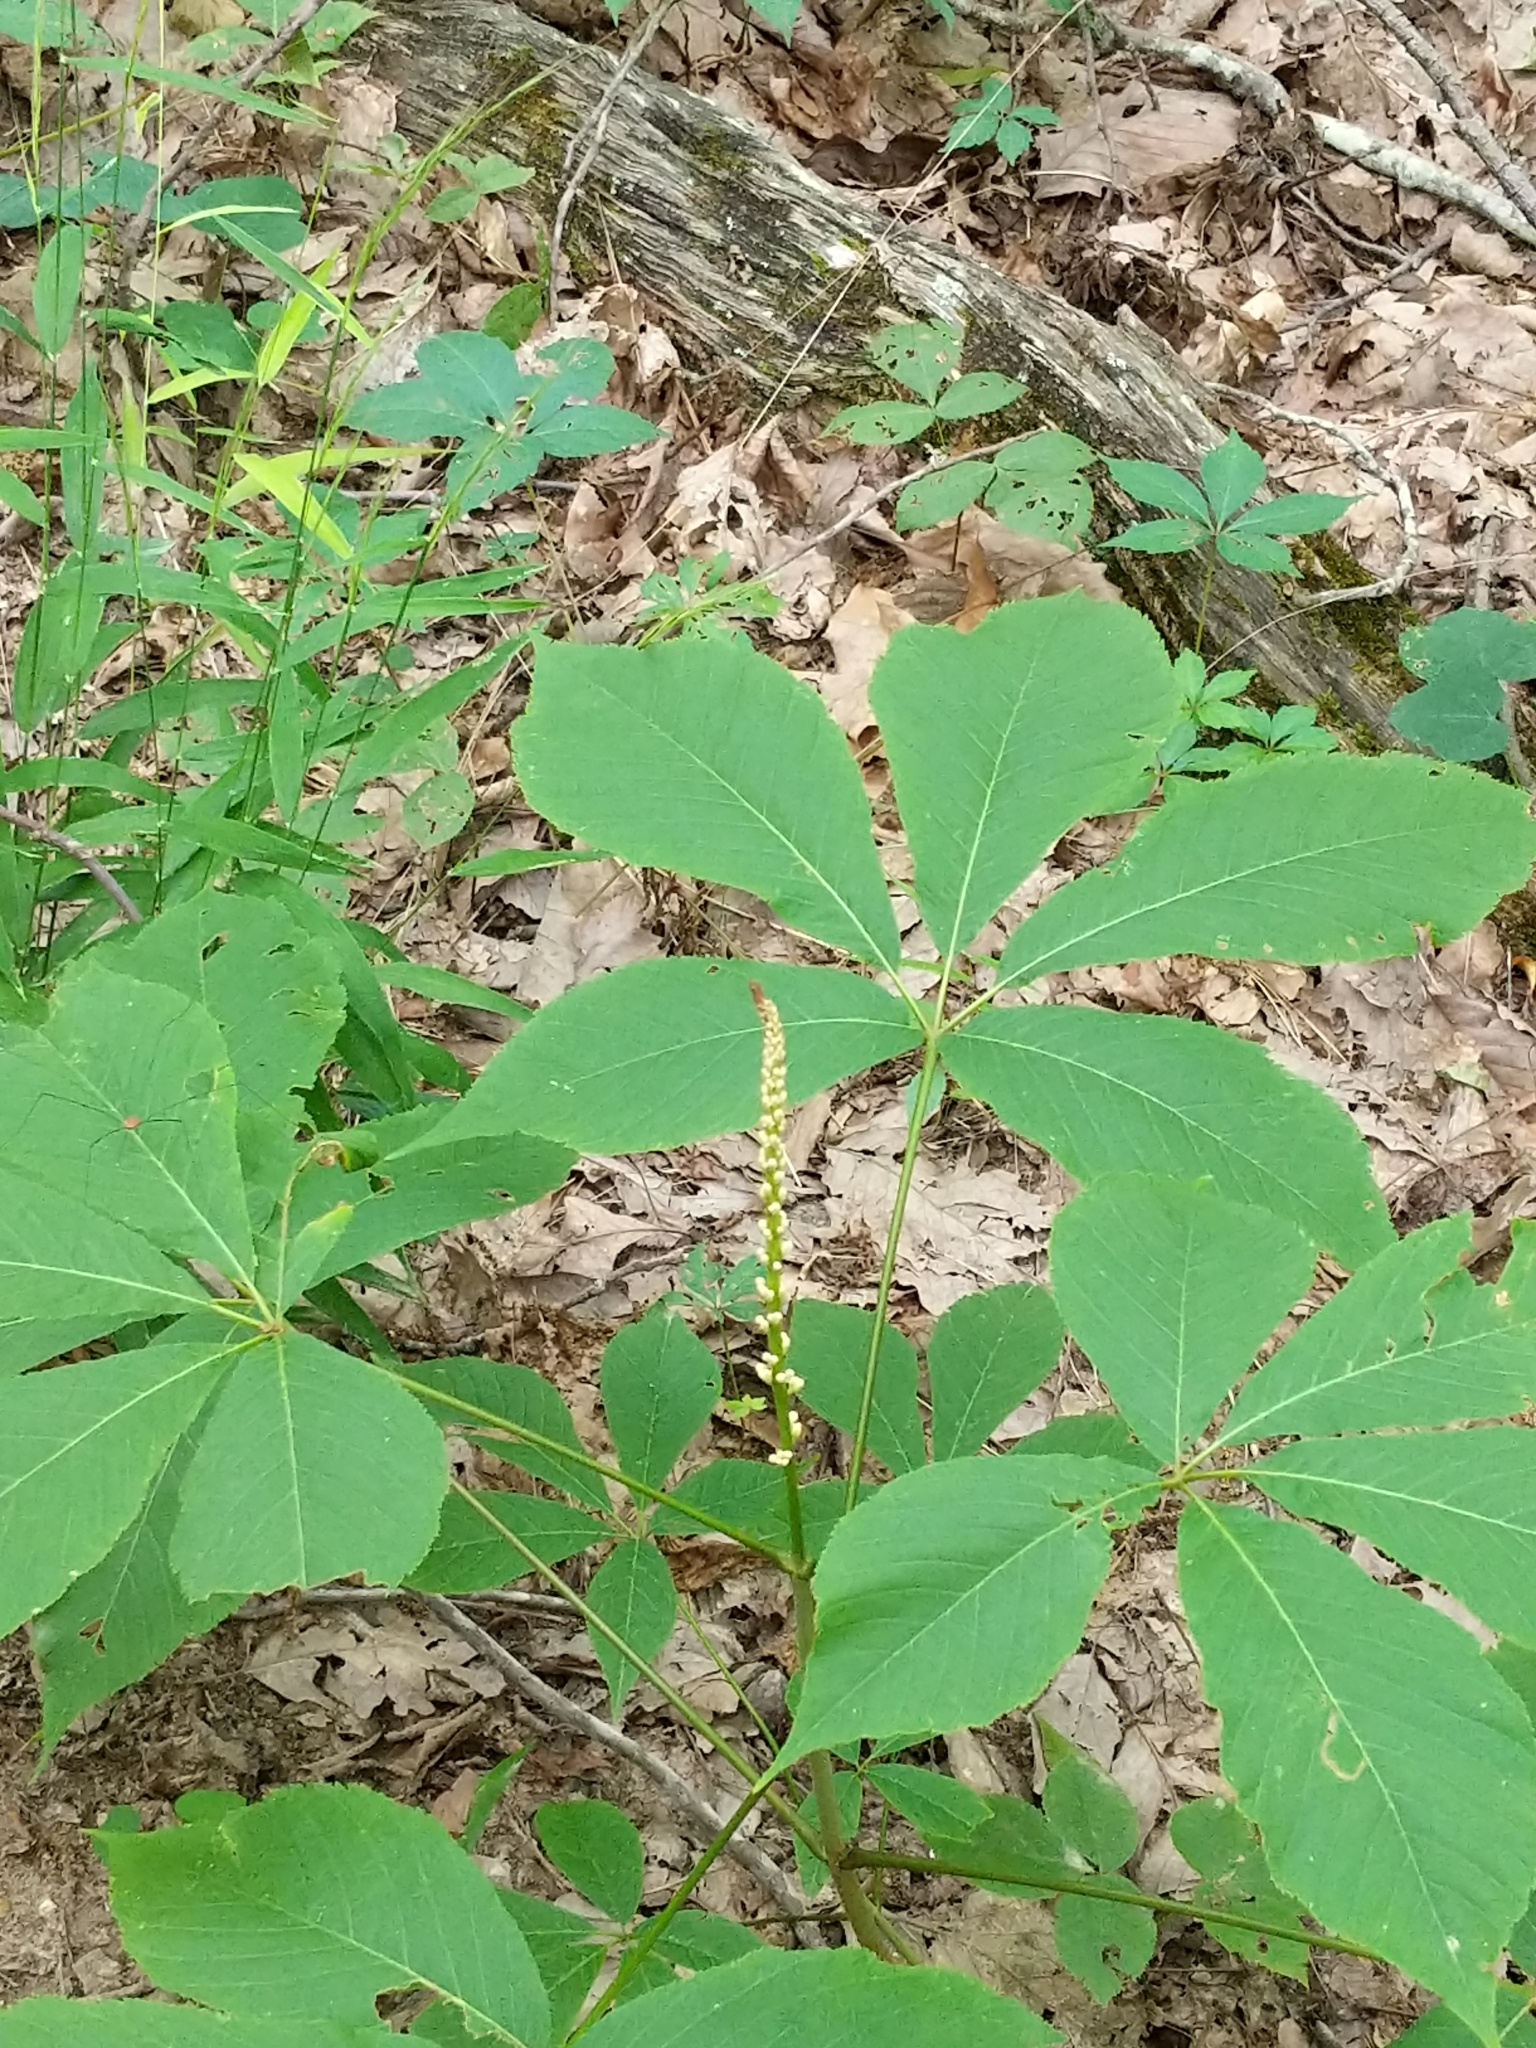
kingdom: Plantae
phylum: Tracheophyta
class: Magnoliopsida
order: Sapindales
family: Sapindaceae
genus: Aesculus
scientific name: Aesculus parviflora
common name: Bottlebrush buckeye
